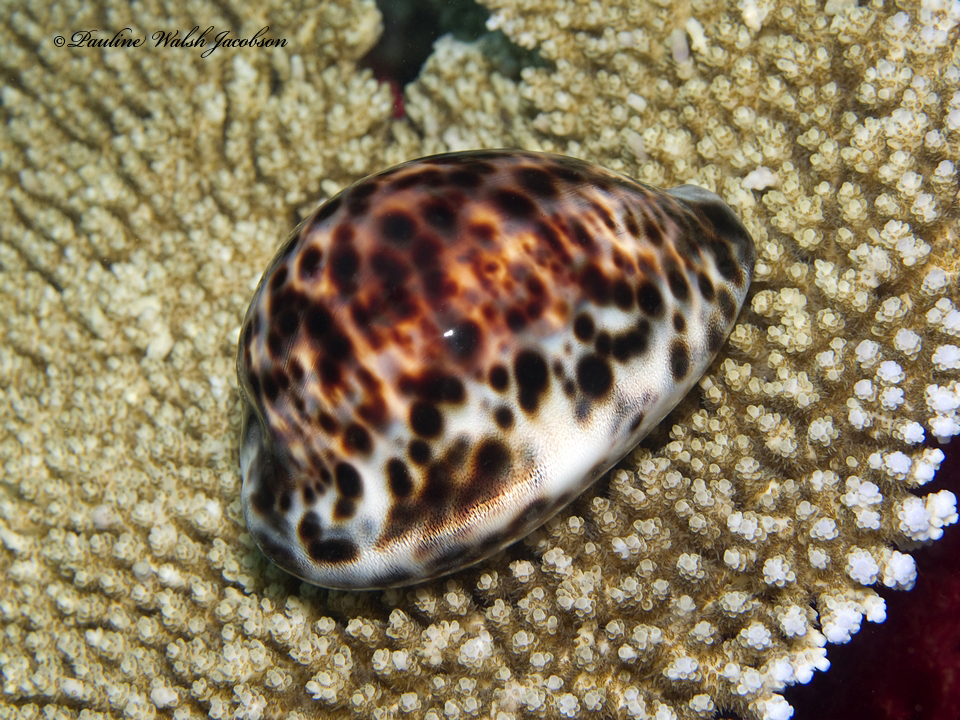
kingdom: Animalia
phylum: Mollusca
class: Gastropoda
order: Littorinimorpha
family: Cypraeidae
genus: Cypraea
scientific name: Cypraea tigris
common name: Tiger cowrie
